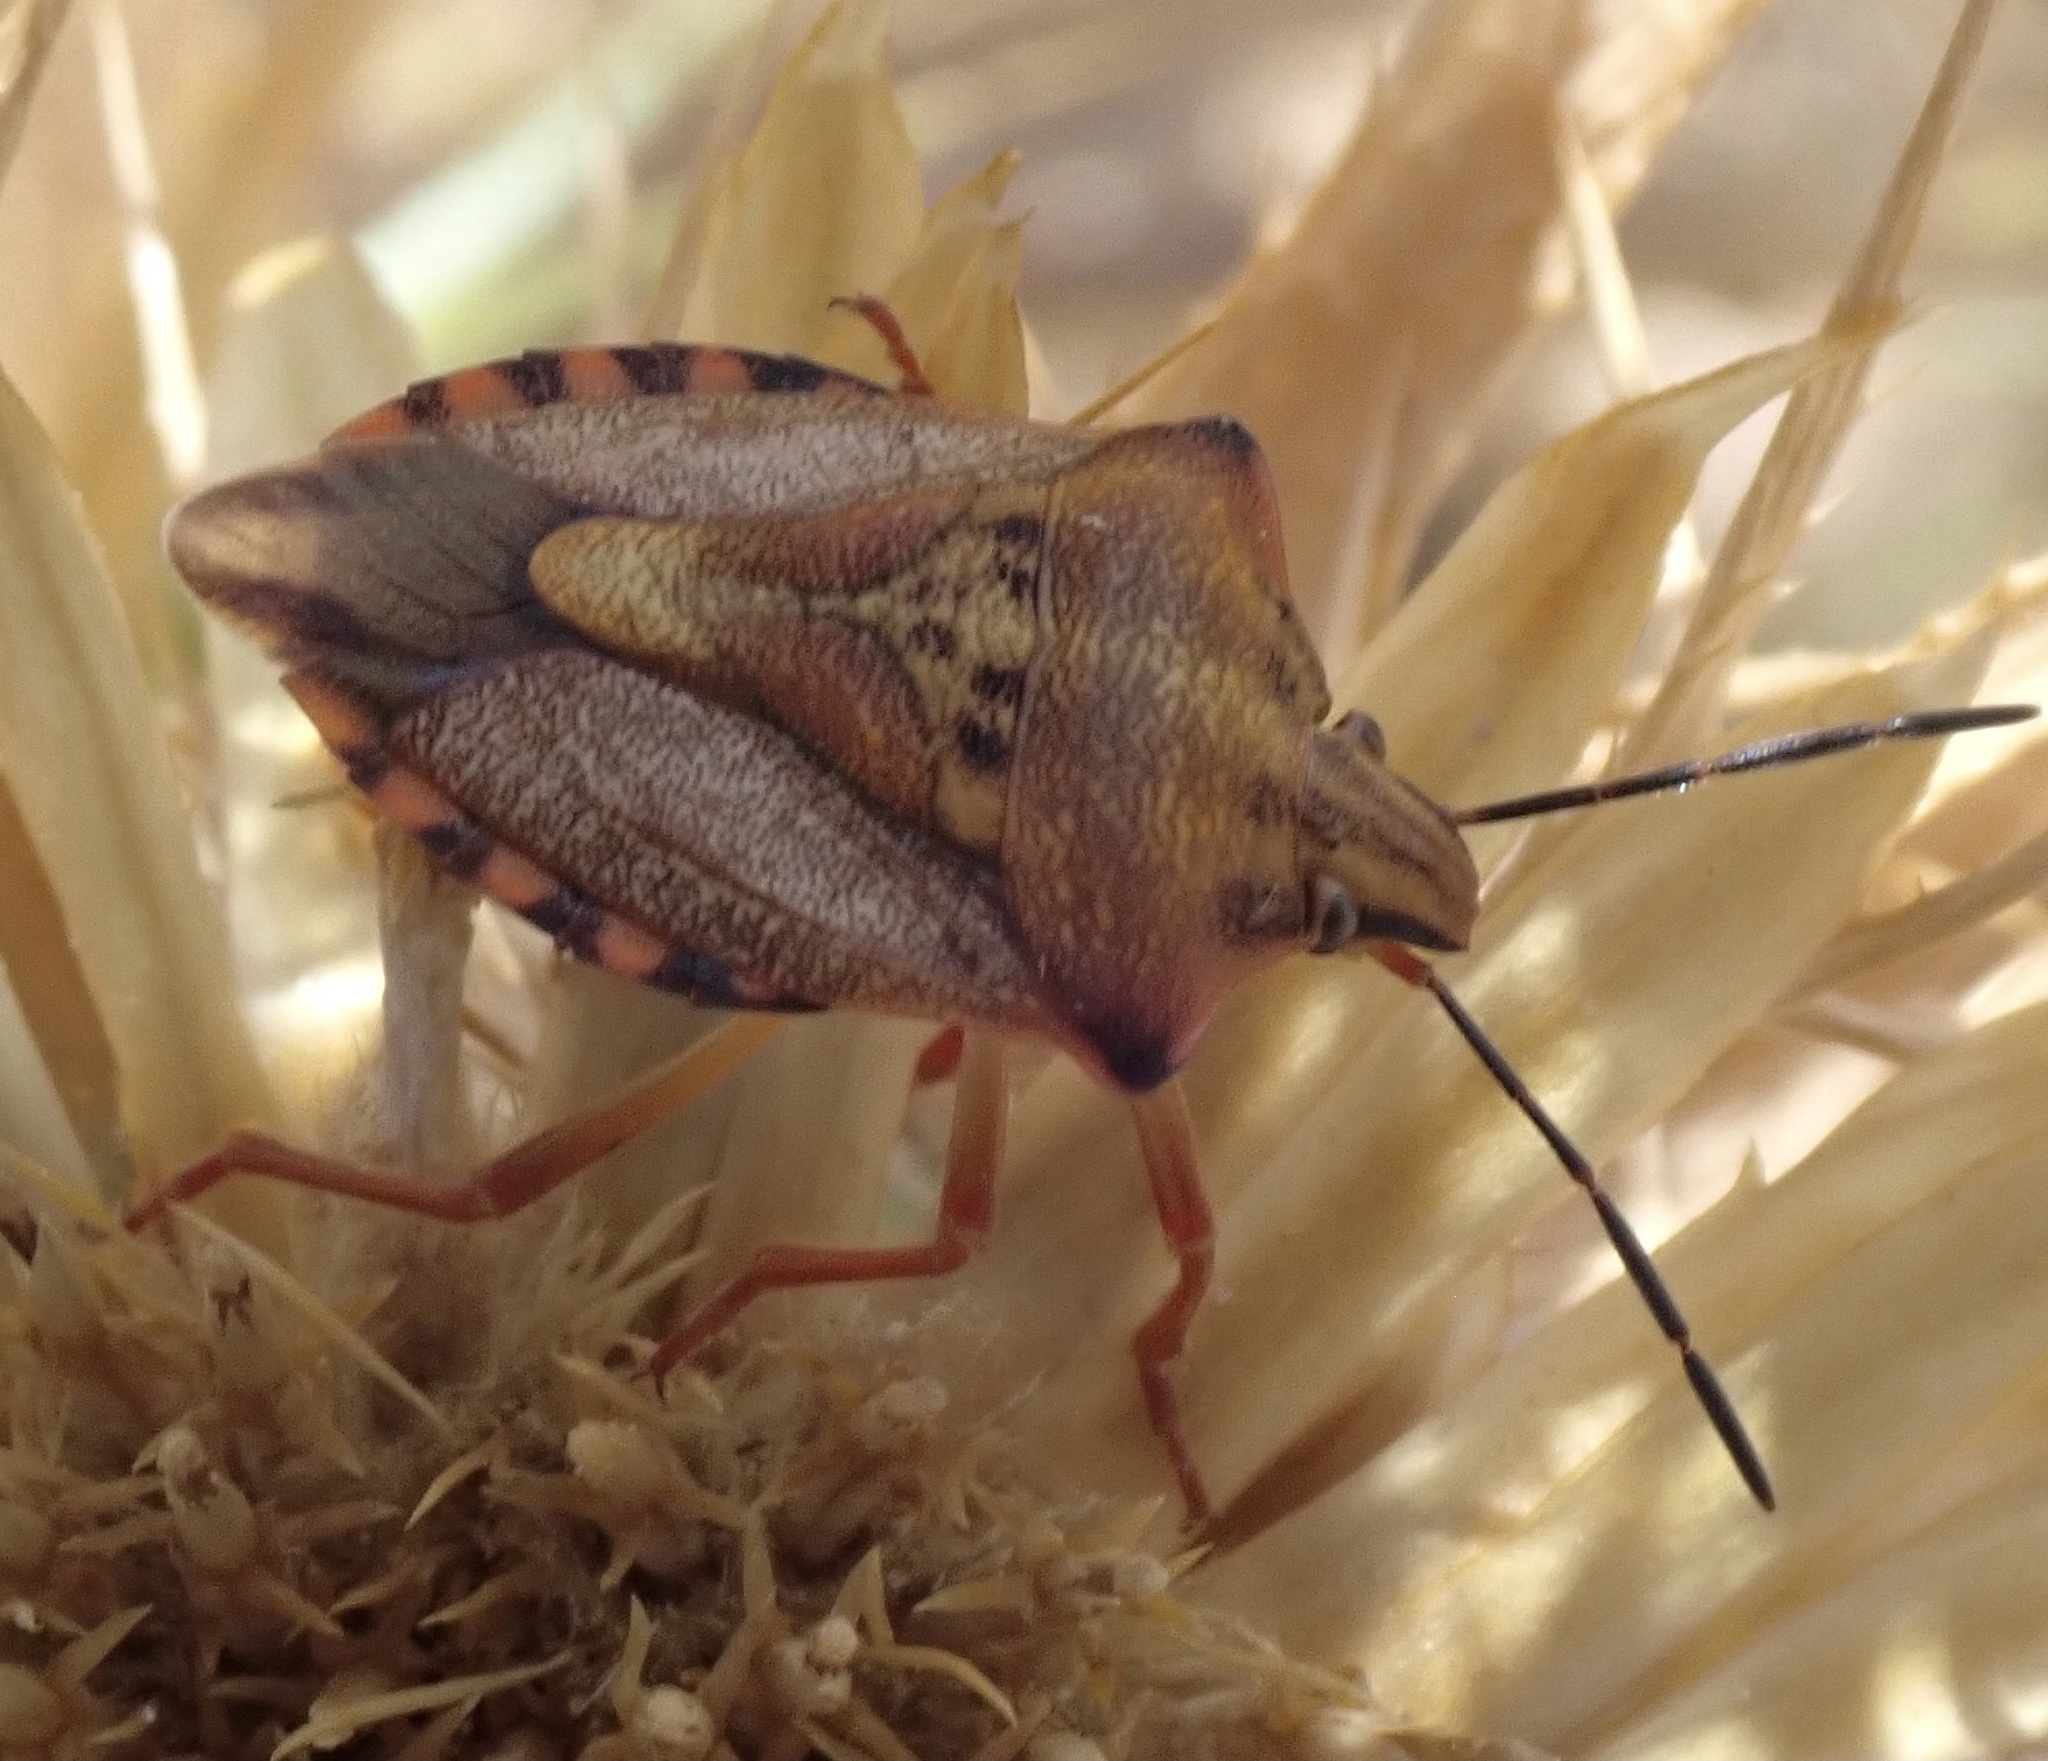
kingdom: Animalia
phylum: Arthropoda
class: Insecta
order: Hemiptera
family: Pentatomidae
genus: Carpocoris
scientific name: Carpocoris mediterraneus
